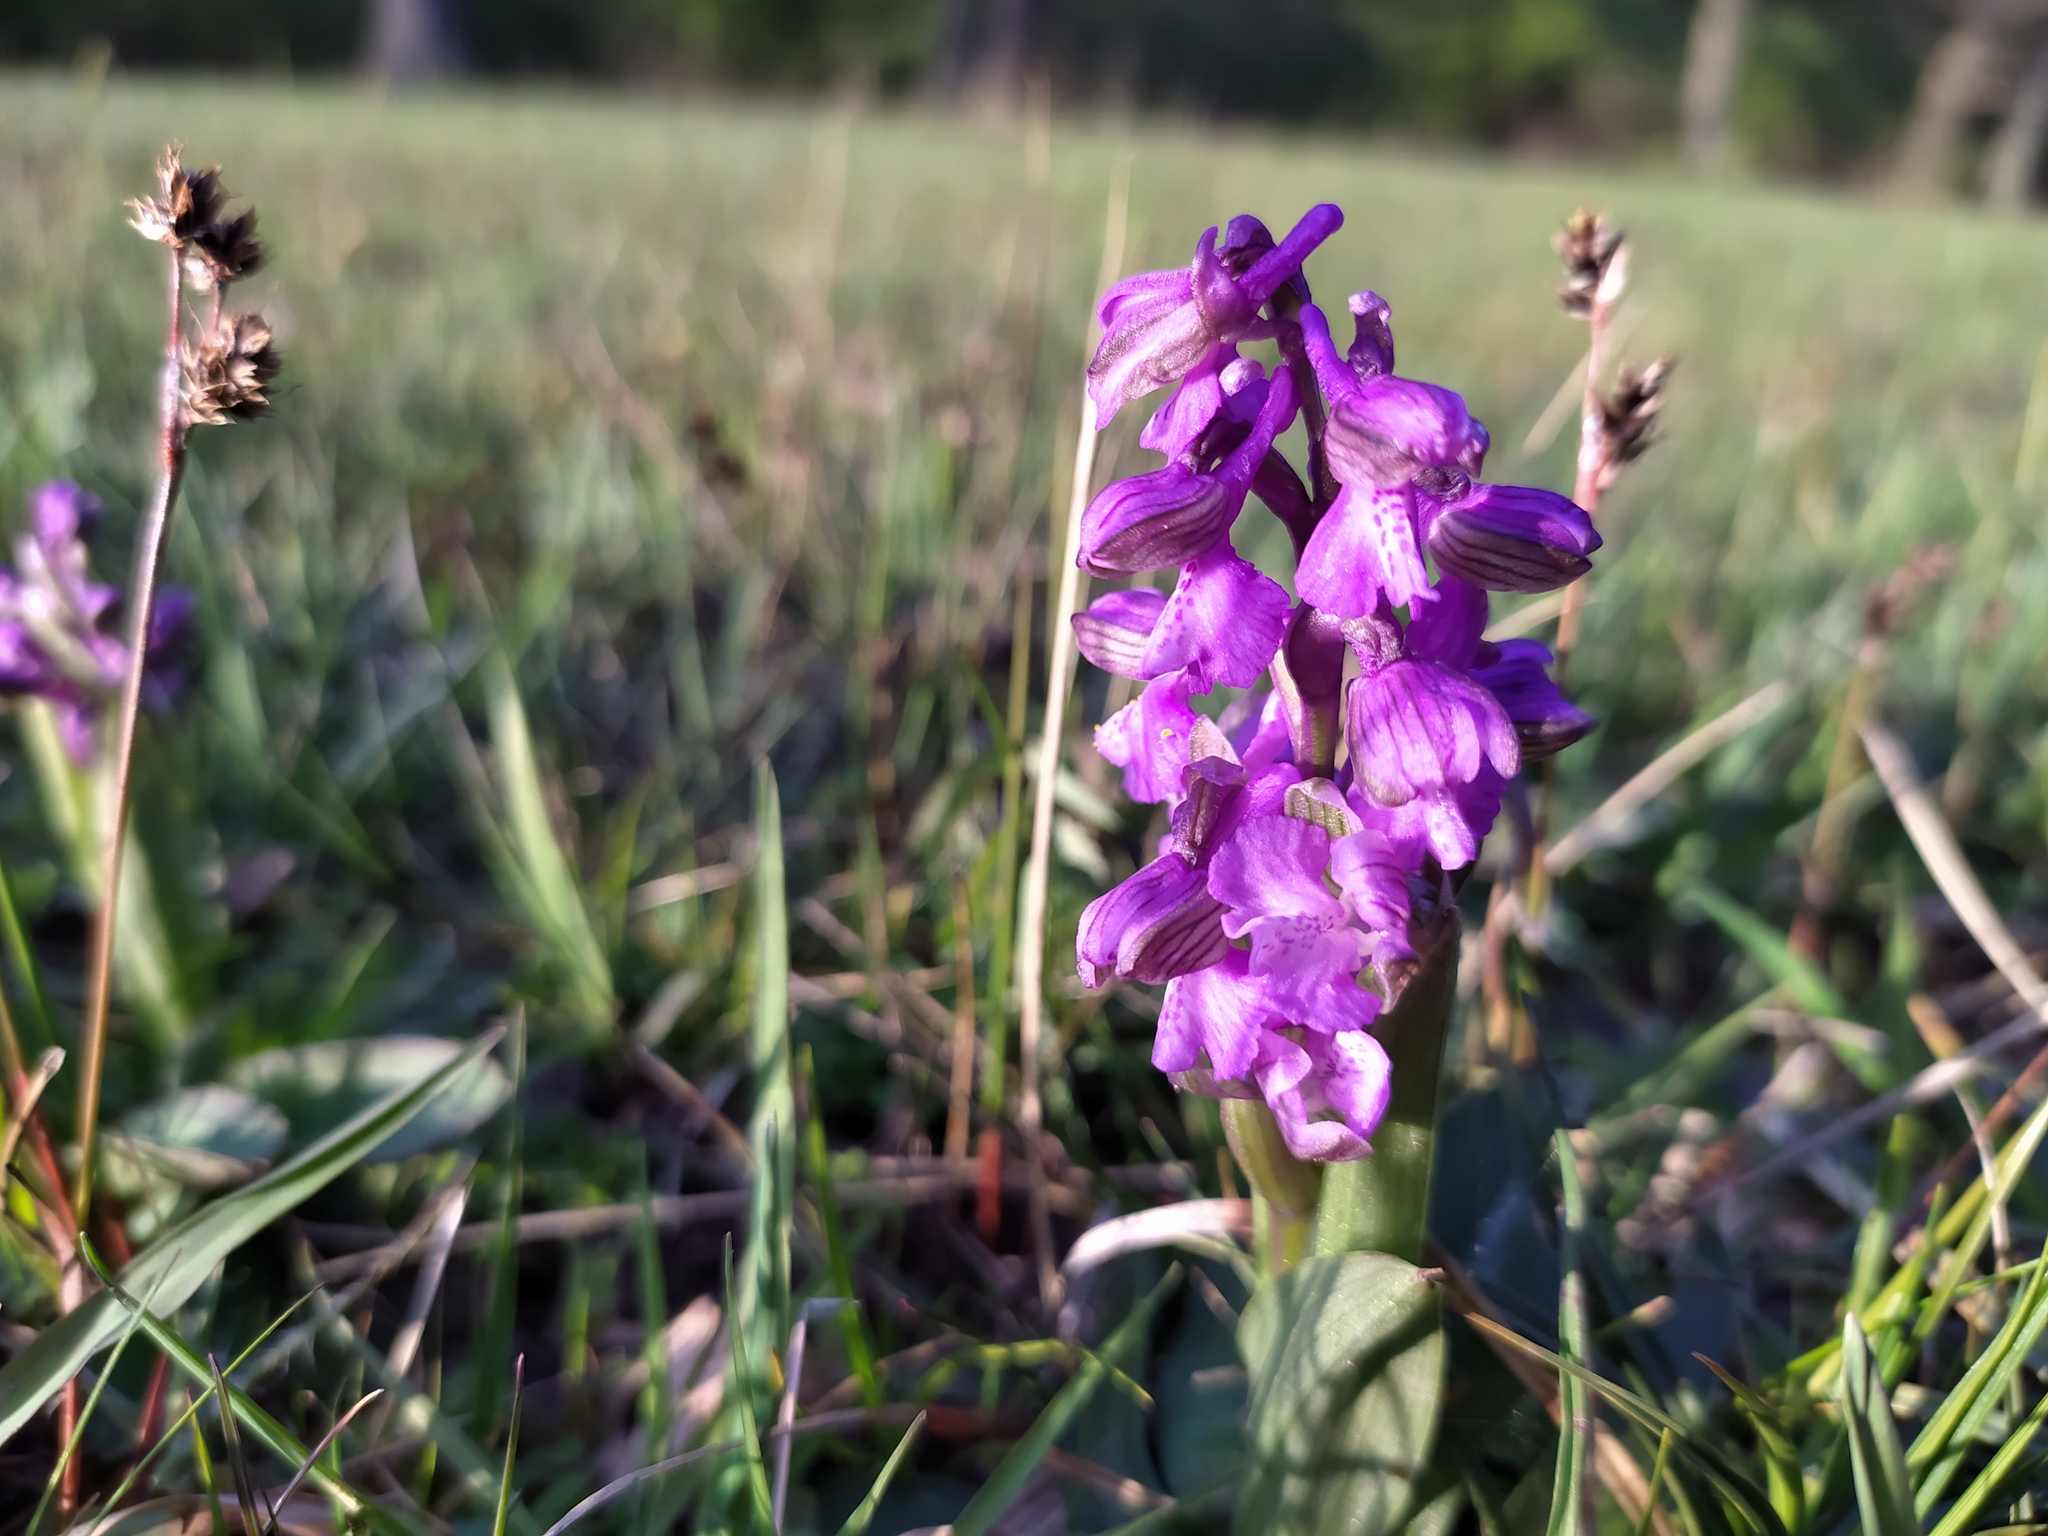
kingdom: Plantae
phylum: Tracheophyta
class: Liliopsida
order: Asparagales
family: Orchidaceae
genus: Anacamptis
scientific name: Anacamptis morio
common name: Green-winged orchid
